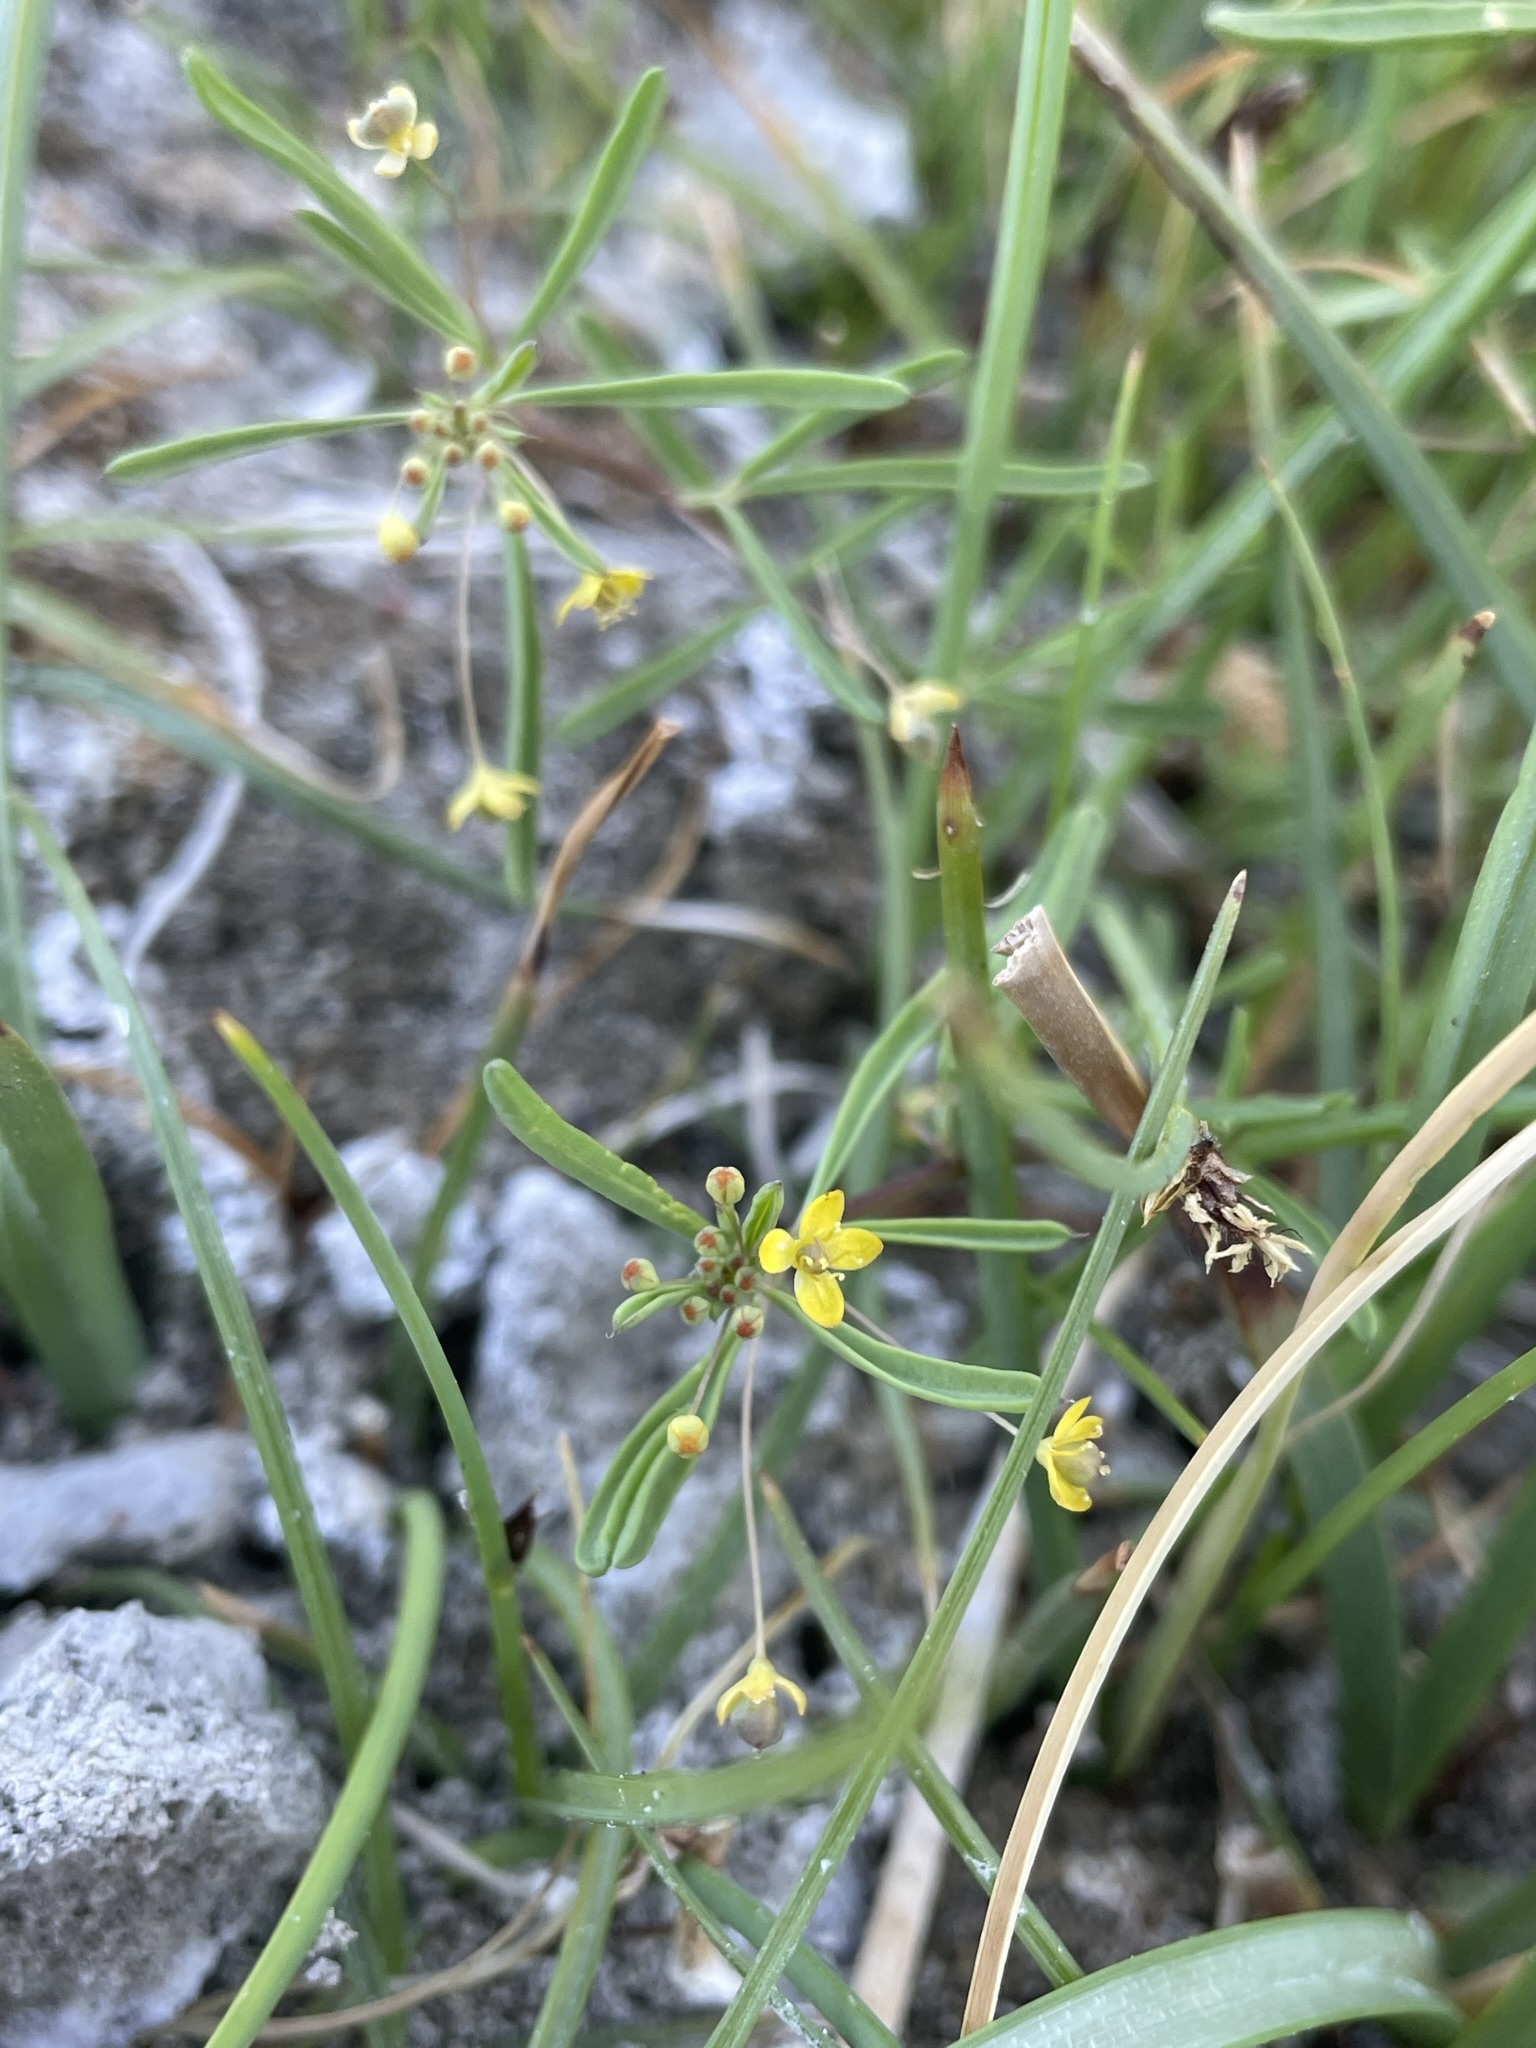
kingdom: Plantae
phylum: Tracheophyta
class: Magnoliopsida
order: Brassicales
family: Cleomaceae
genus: Cleomella
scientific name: Cleomella parviflora
